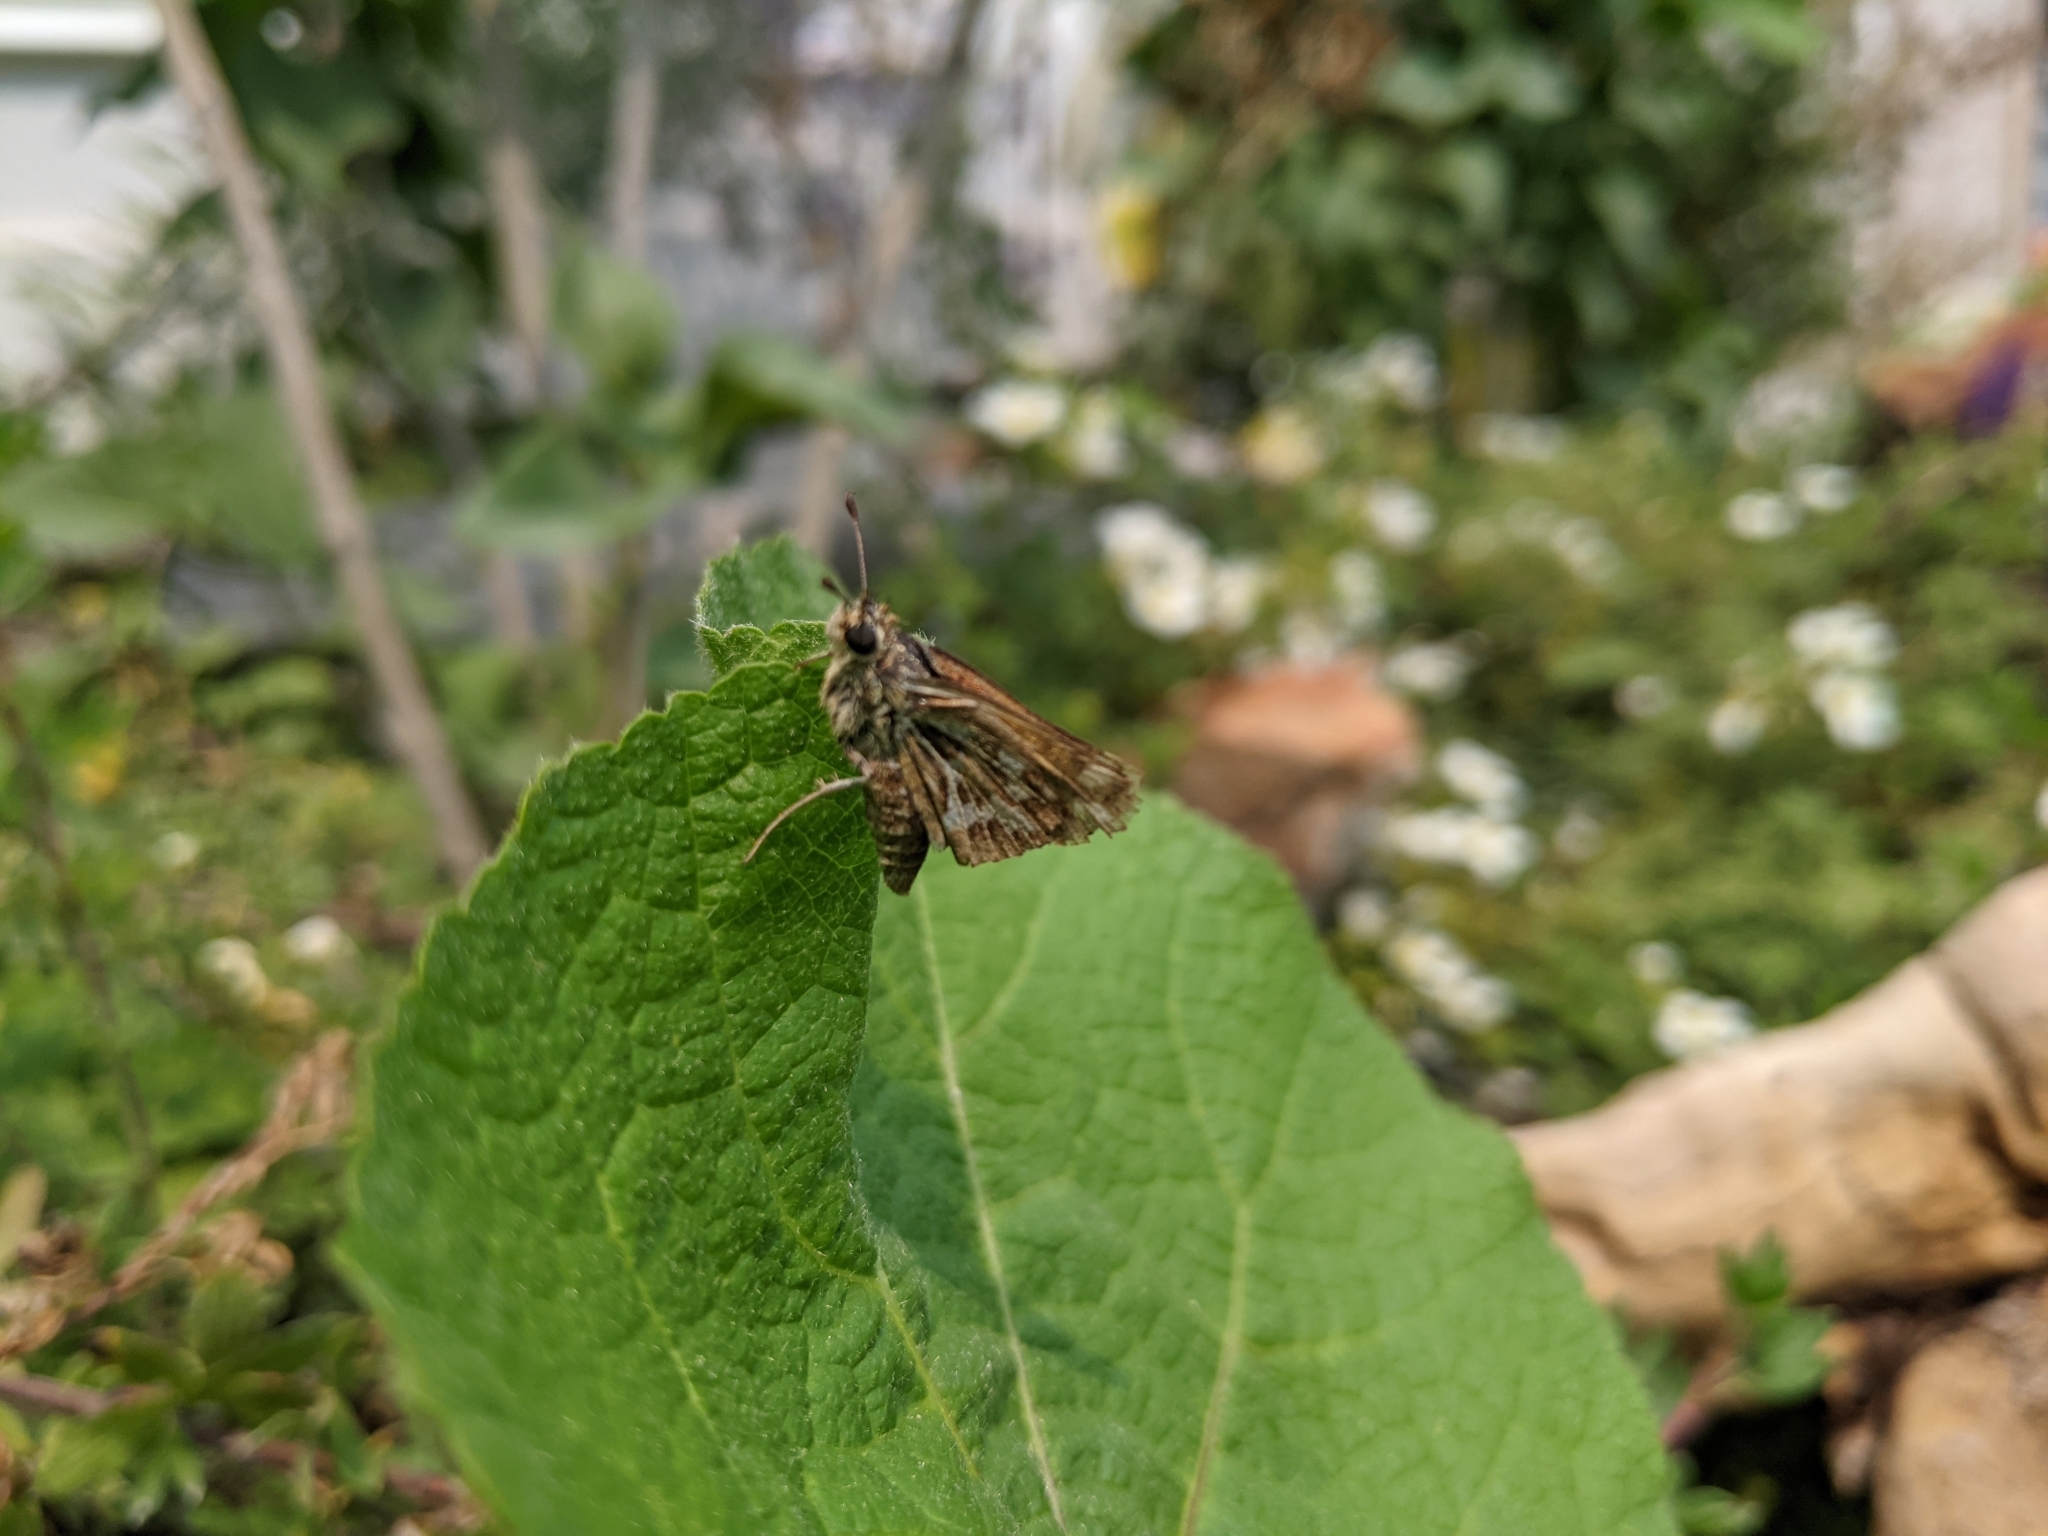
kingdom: Animalia
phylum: Arthropoda
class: Insecta
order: Lepidoptera
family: Hesperiidae
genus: Polites
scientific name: Polites sabuleti
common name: Sandhill skipper
